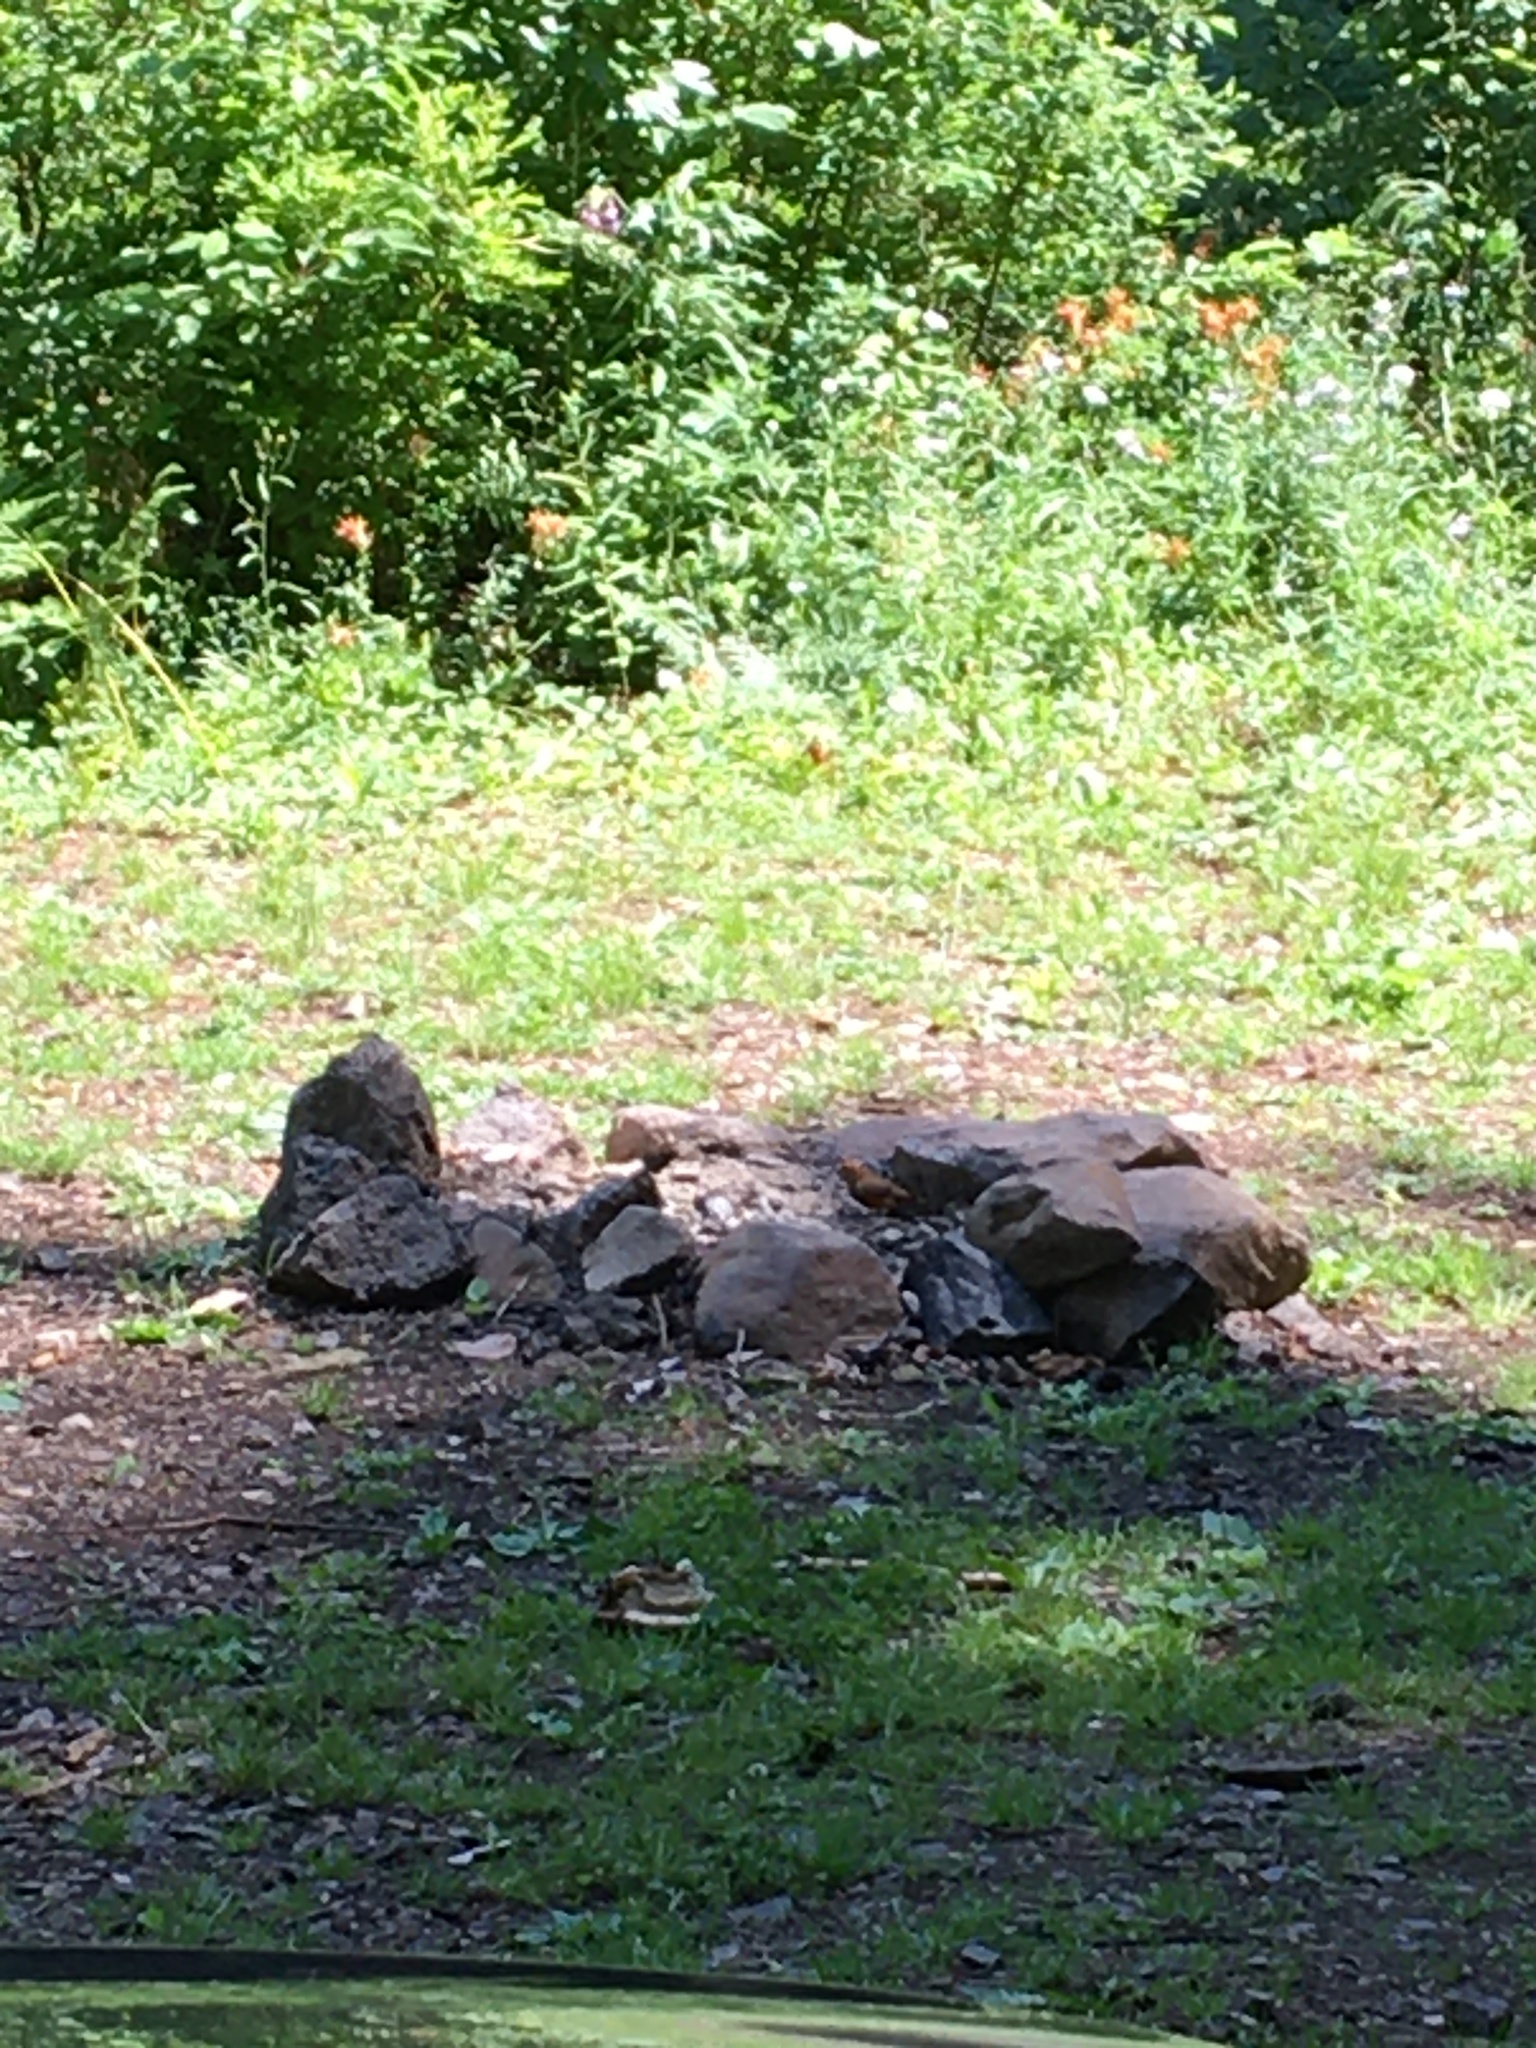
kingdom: Animalia
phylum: Chordata
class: Aves
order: Passeriformes
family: Fringillidae
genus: Loxia
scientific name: Loxia curvirostra
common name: Red crossbill
